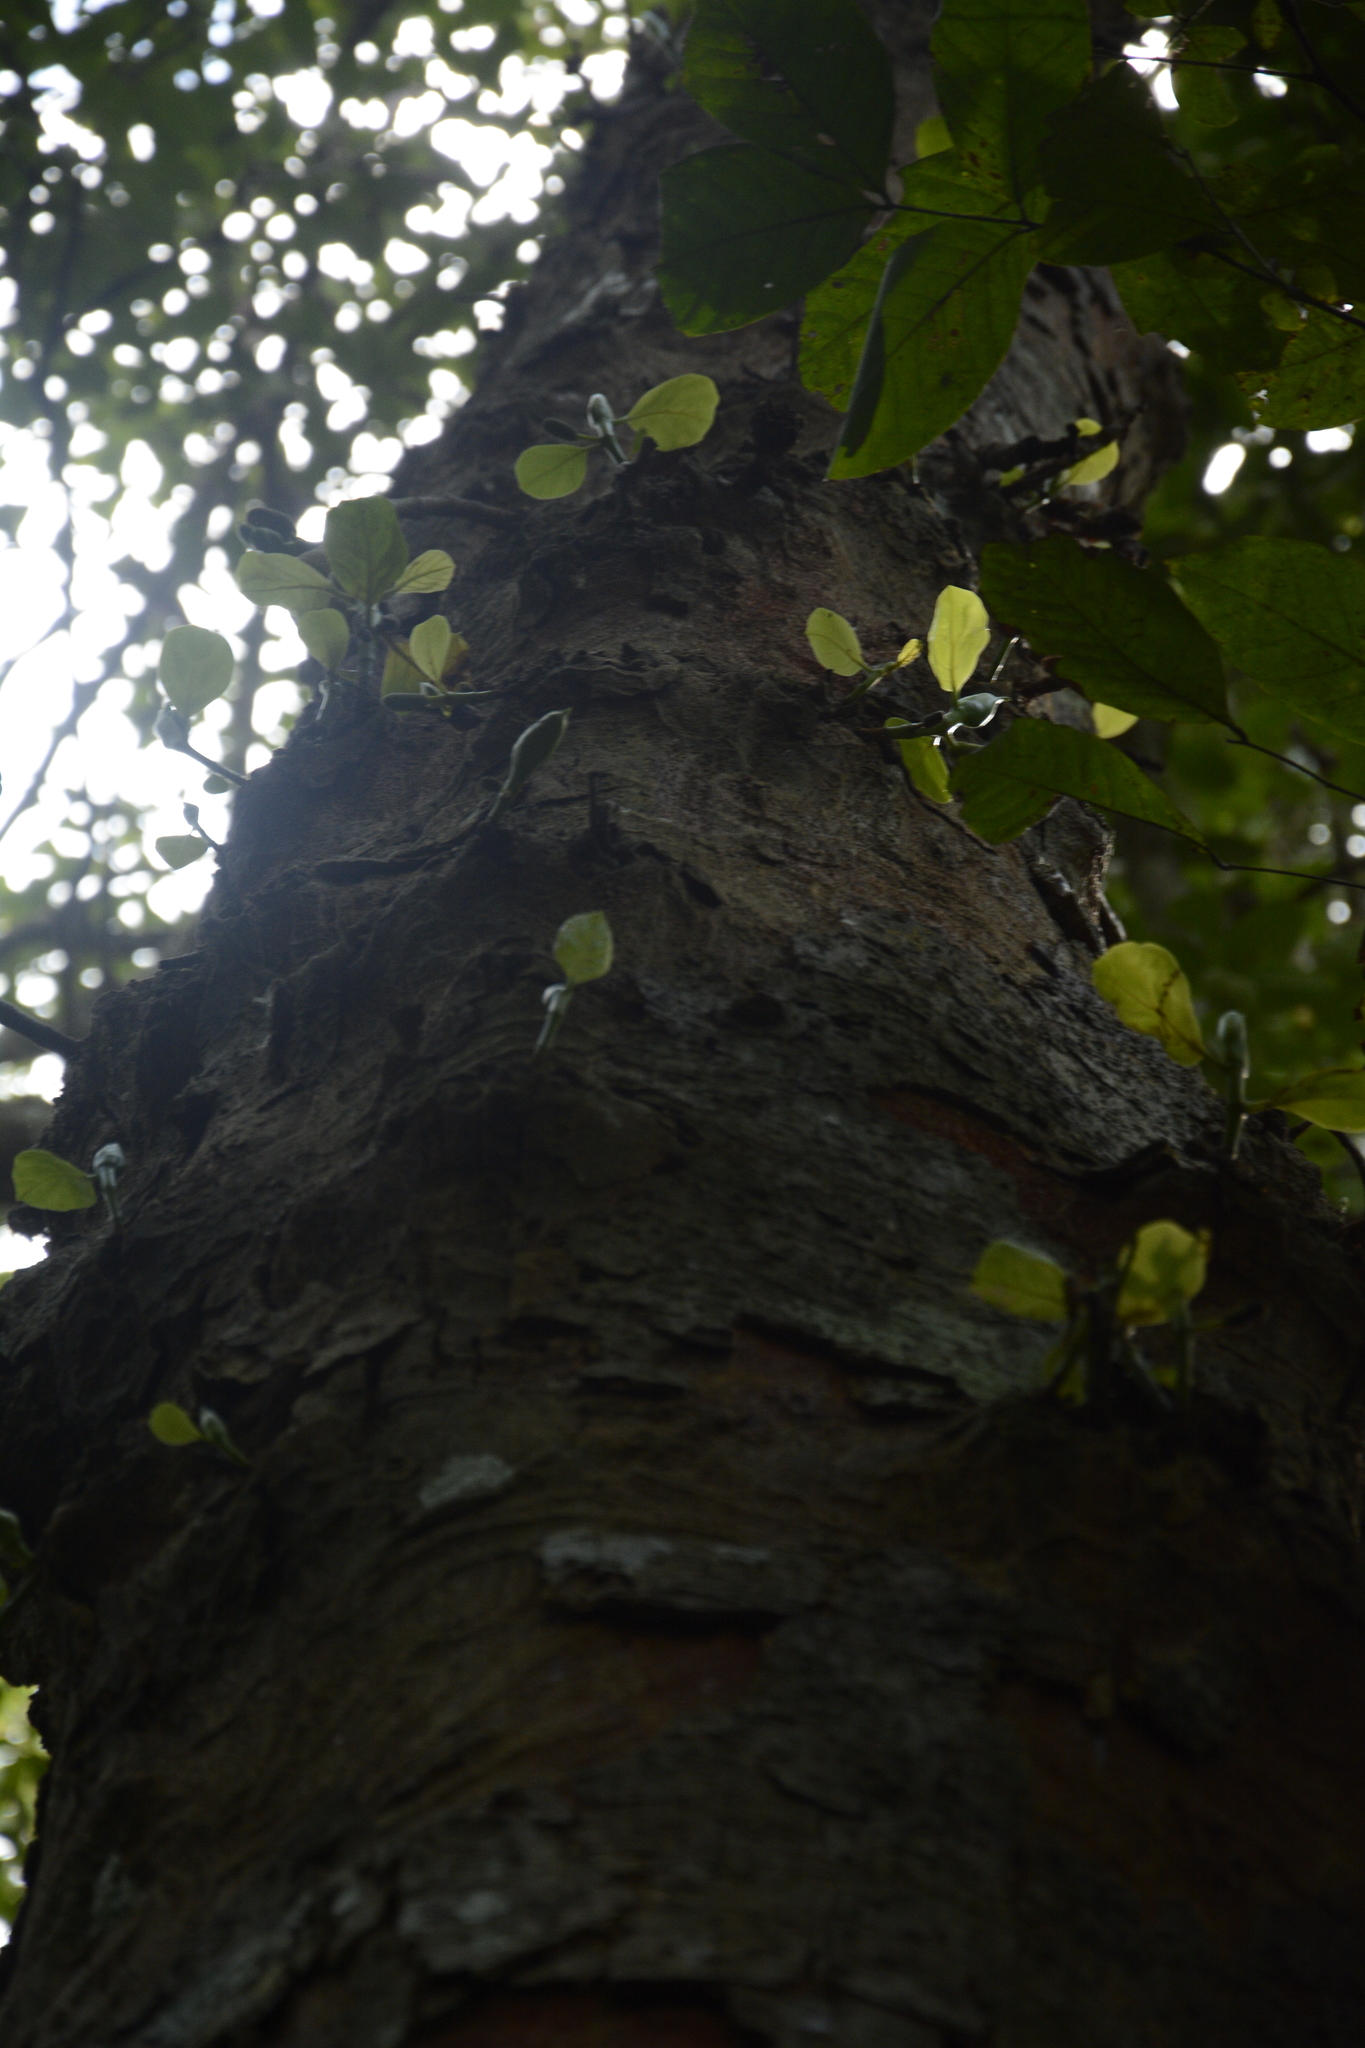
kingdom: Plantae
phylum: Tracheophyta
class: Magnoliopsida
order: Rosales
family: Moraceae
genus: Artocarpus
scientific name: Artocarpus heterophyllus
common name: Jackfruit
